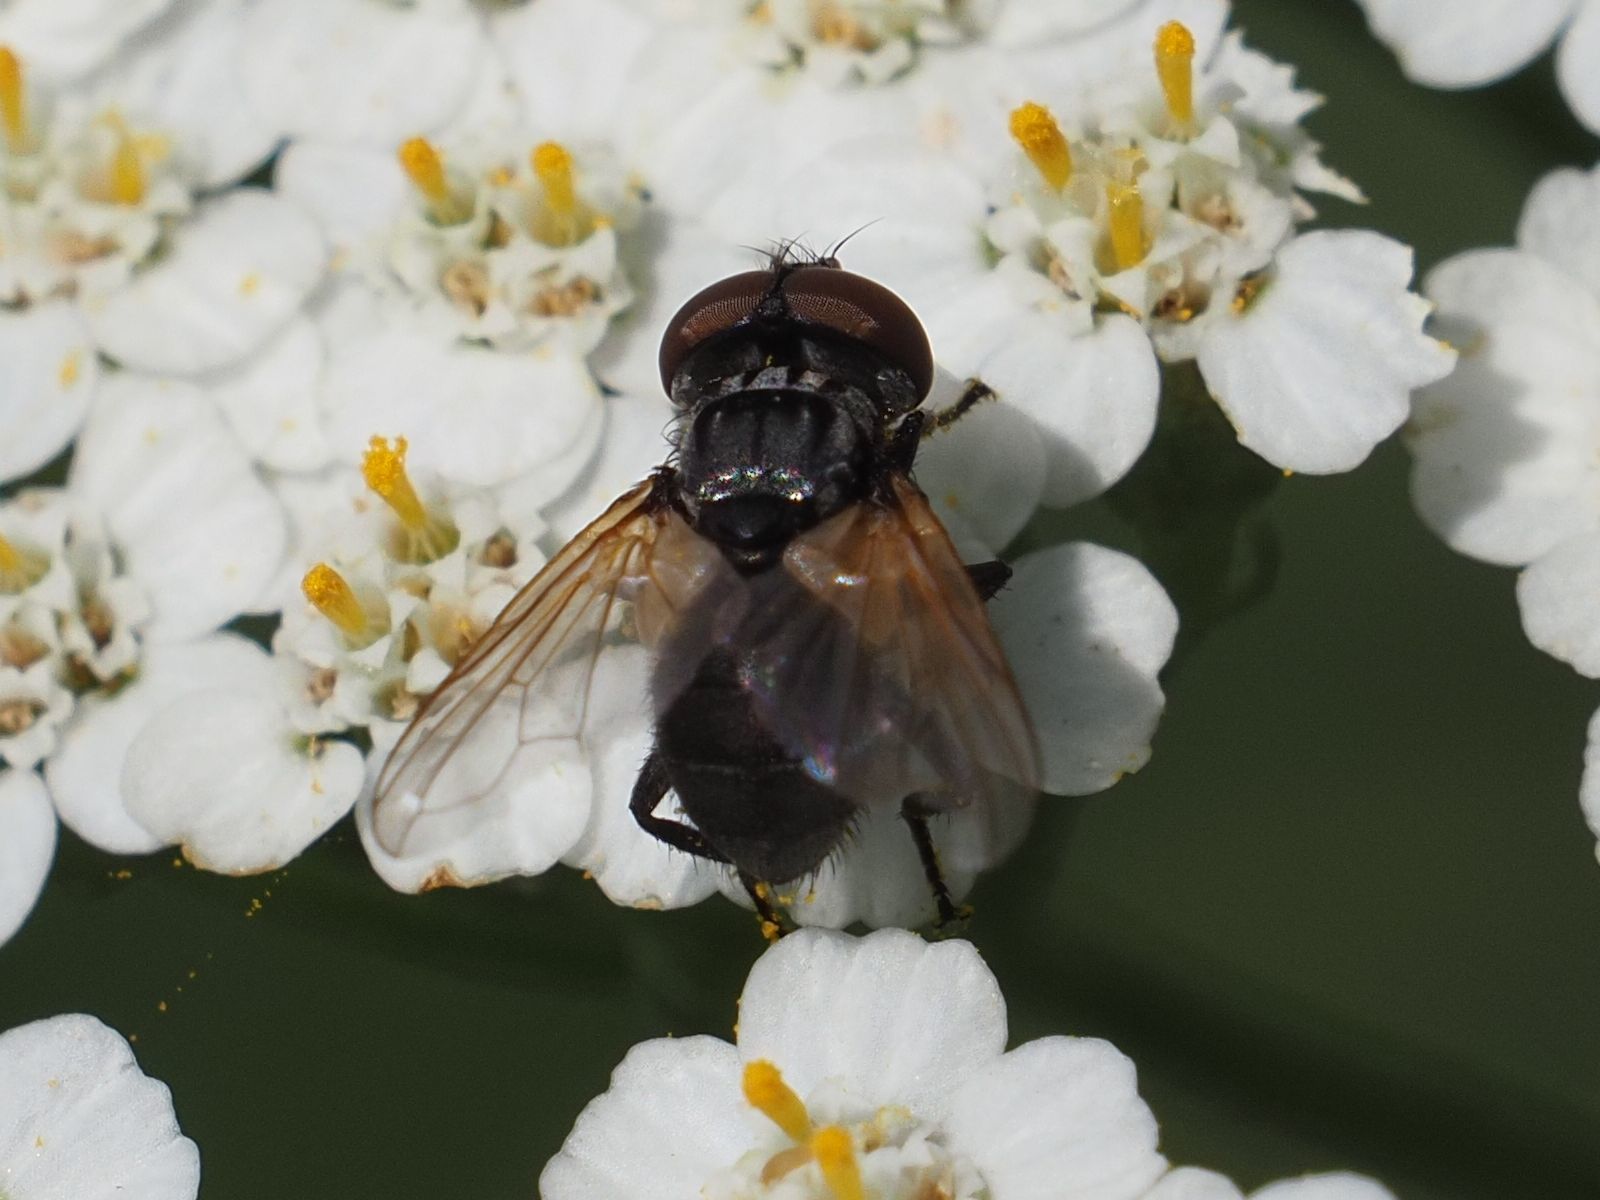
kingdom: Animalia
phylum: Arthropoda
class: Insecta
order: Diptera
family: Tachinidae
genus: Phasia
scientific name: Phasia obesa
